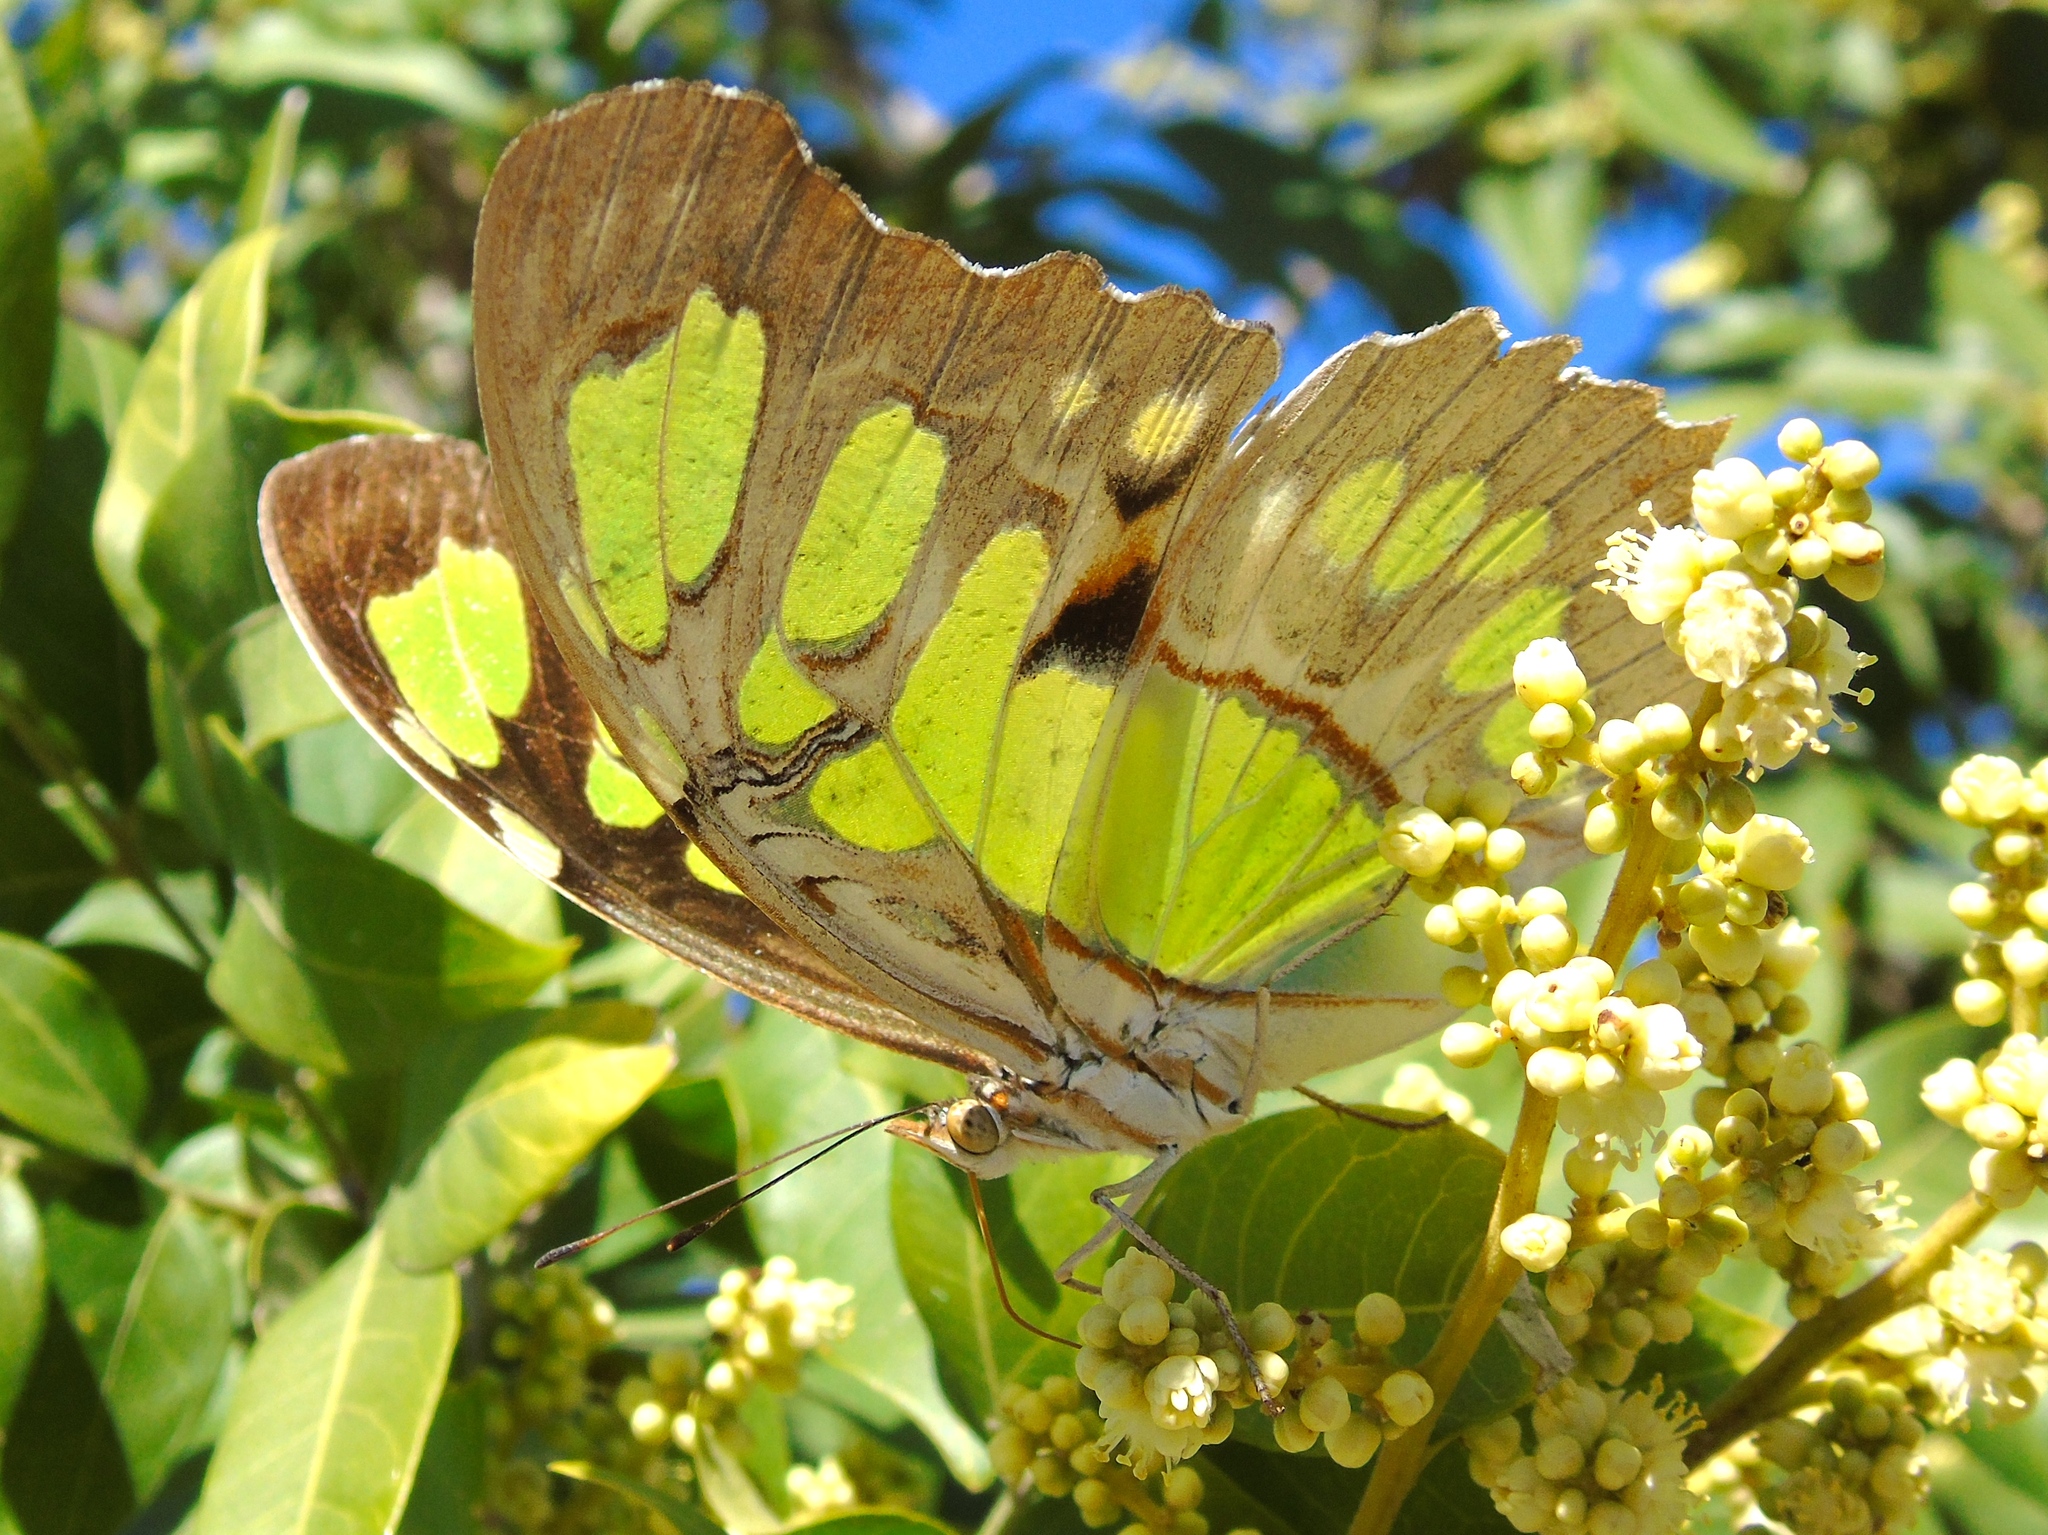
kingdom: Animalia
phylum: Arthropoda
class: Insecta
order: Lepidoptera
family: Nymphalidae
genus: Siproeta
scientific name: Siproeta stelenes
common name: Malachite
